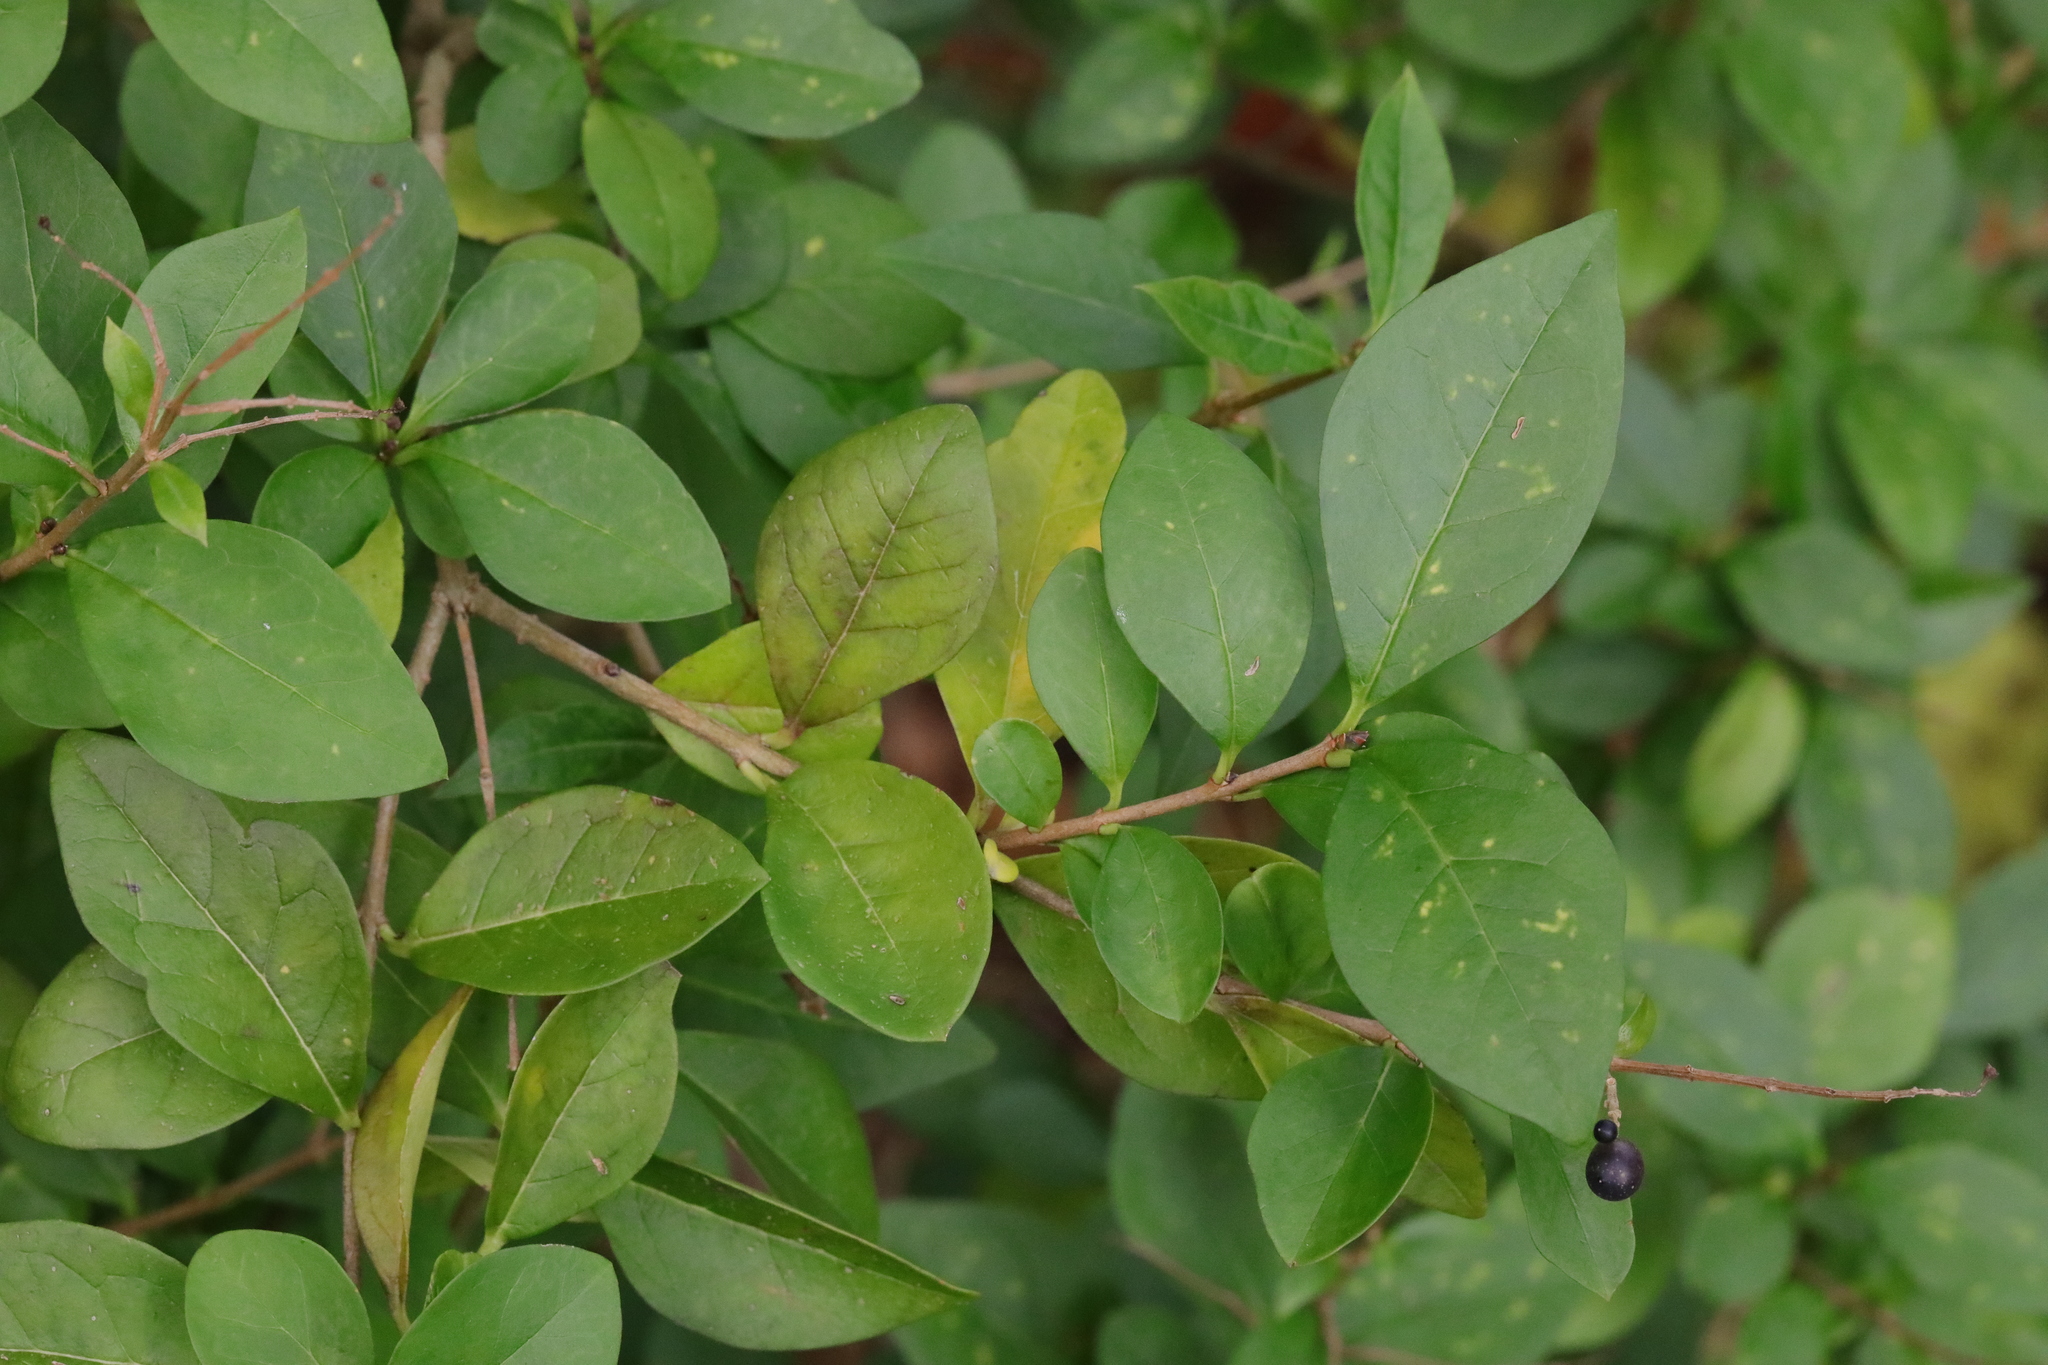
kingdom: Plantae
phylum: Tracheophyta
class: Magnoliopsida
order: Lamiales
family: Oleaceae
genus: Ligustrum
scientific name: Ligustrum ovalifolium
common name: California privet
